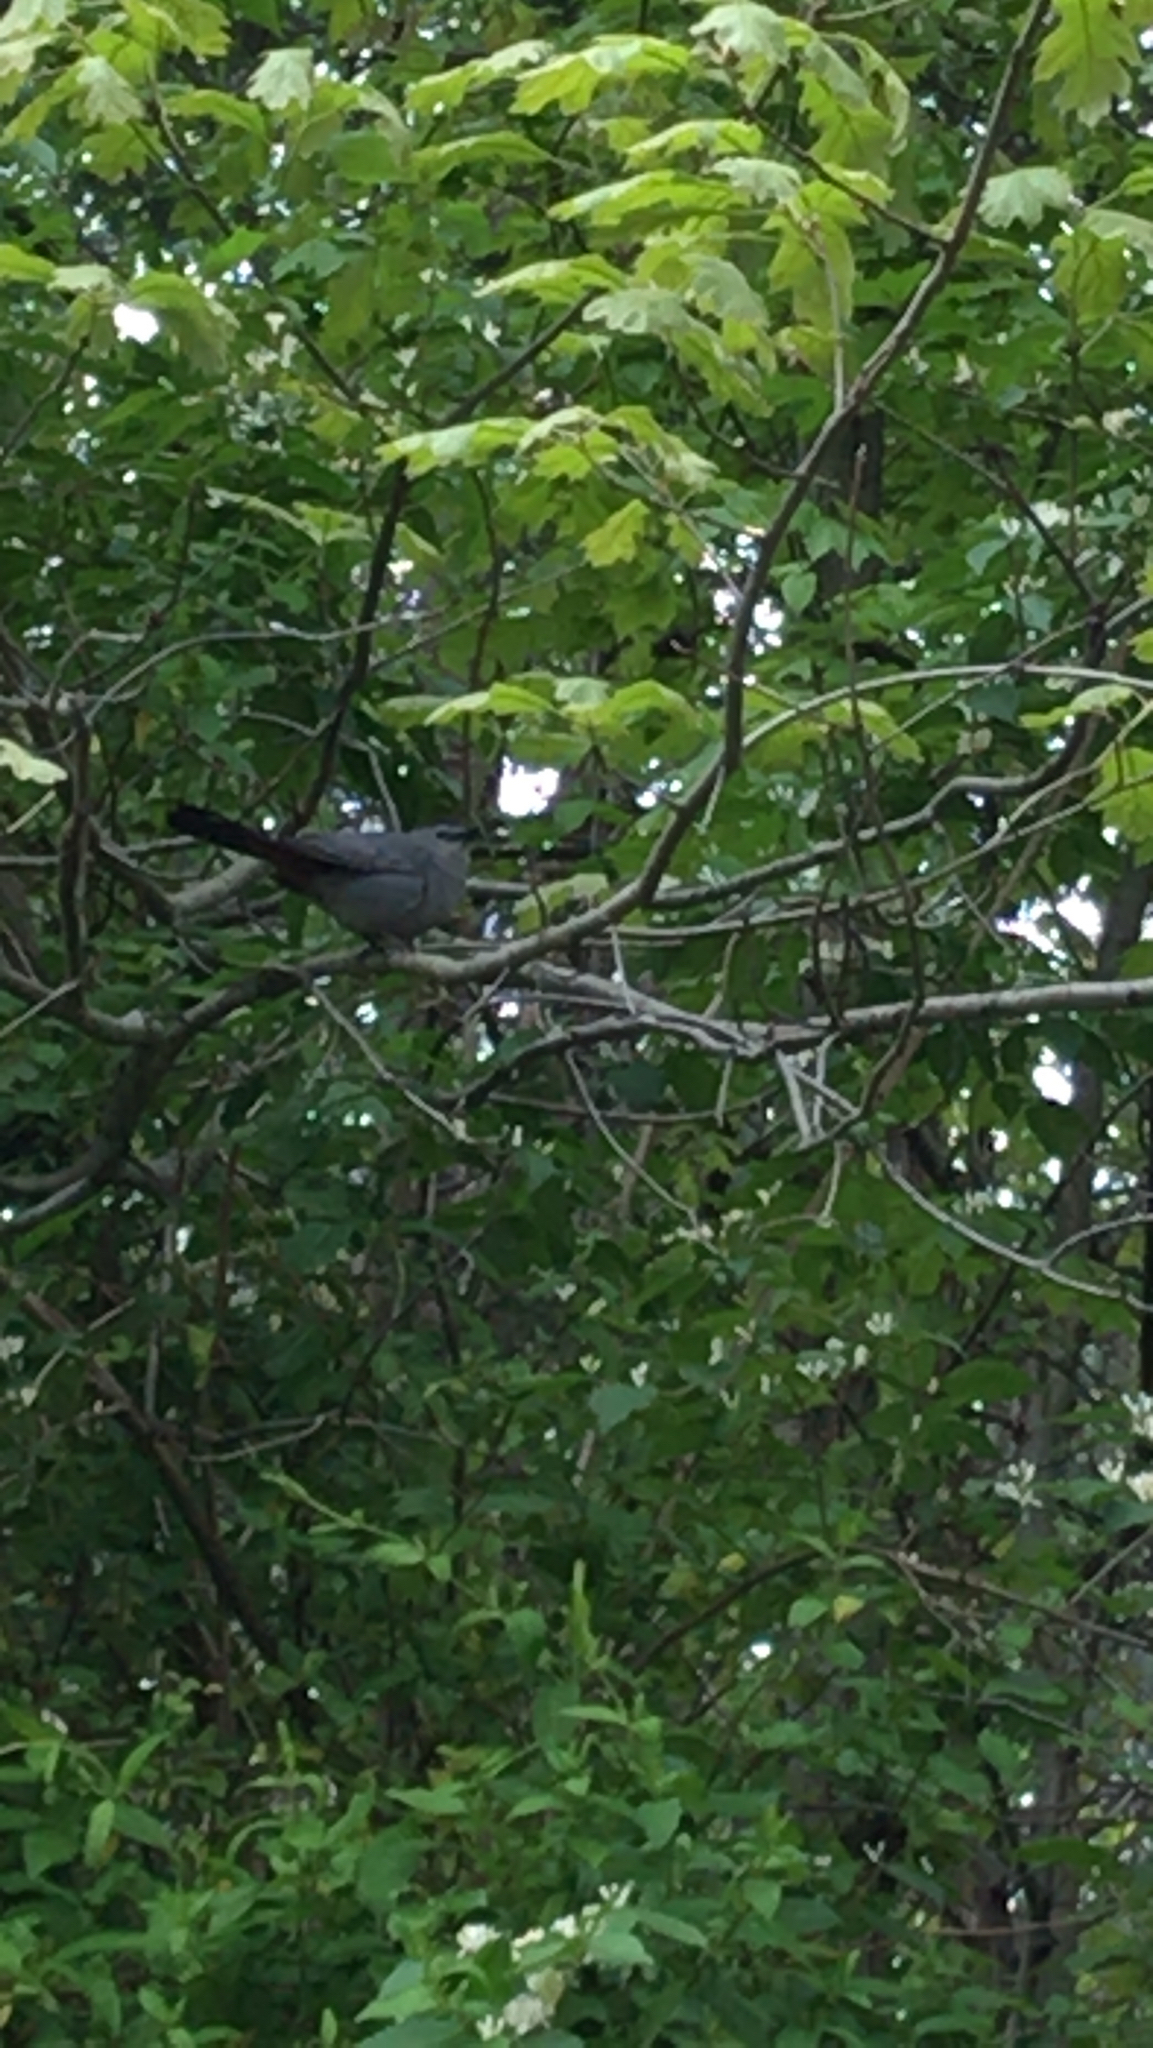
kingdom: Animalia
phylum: Chordata
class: Aves
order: Passeriformes
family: Mimidae
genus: Dumetella
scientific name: Dumetella carolinensis
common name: Gray catbird
